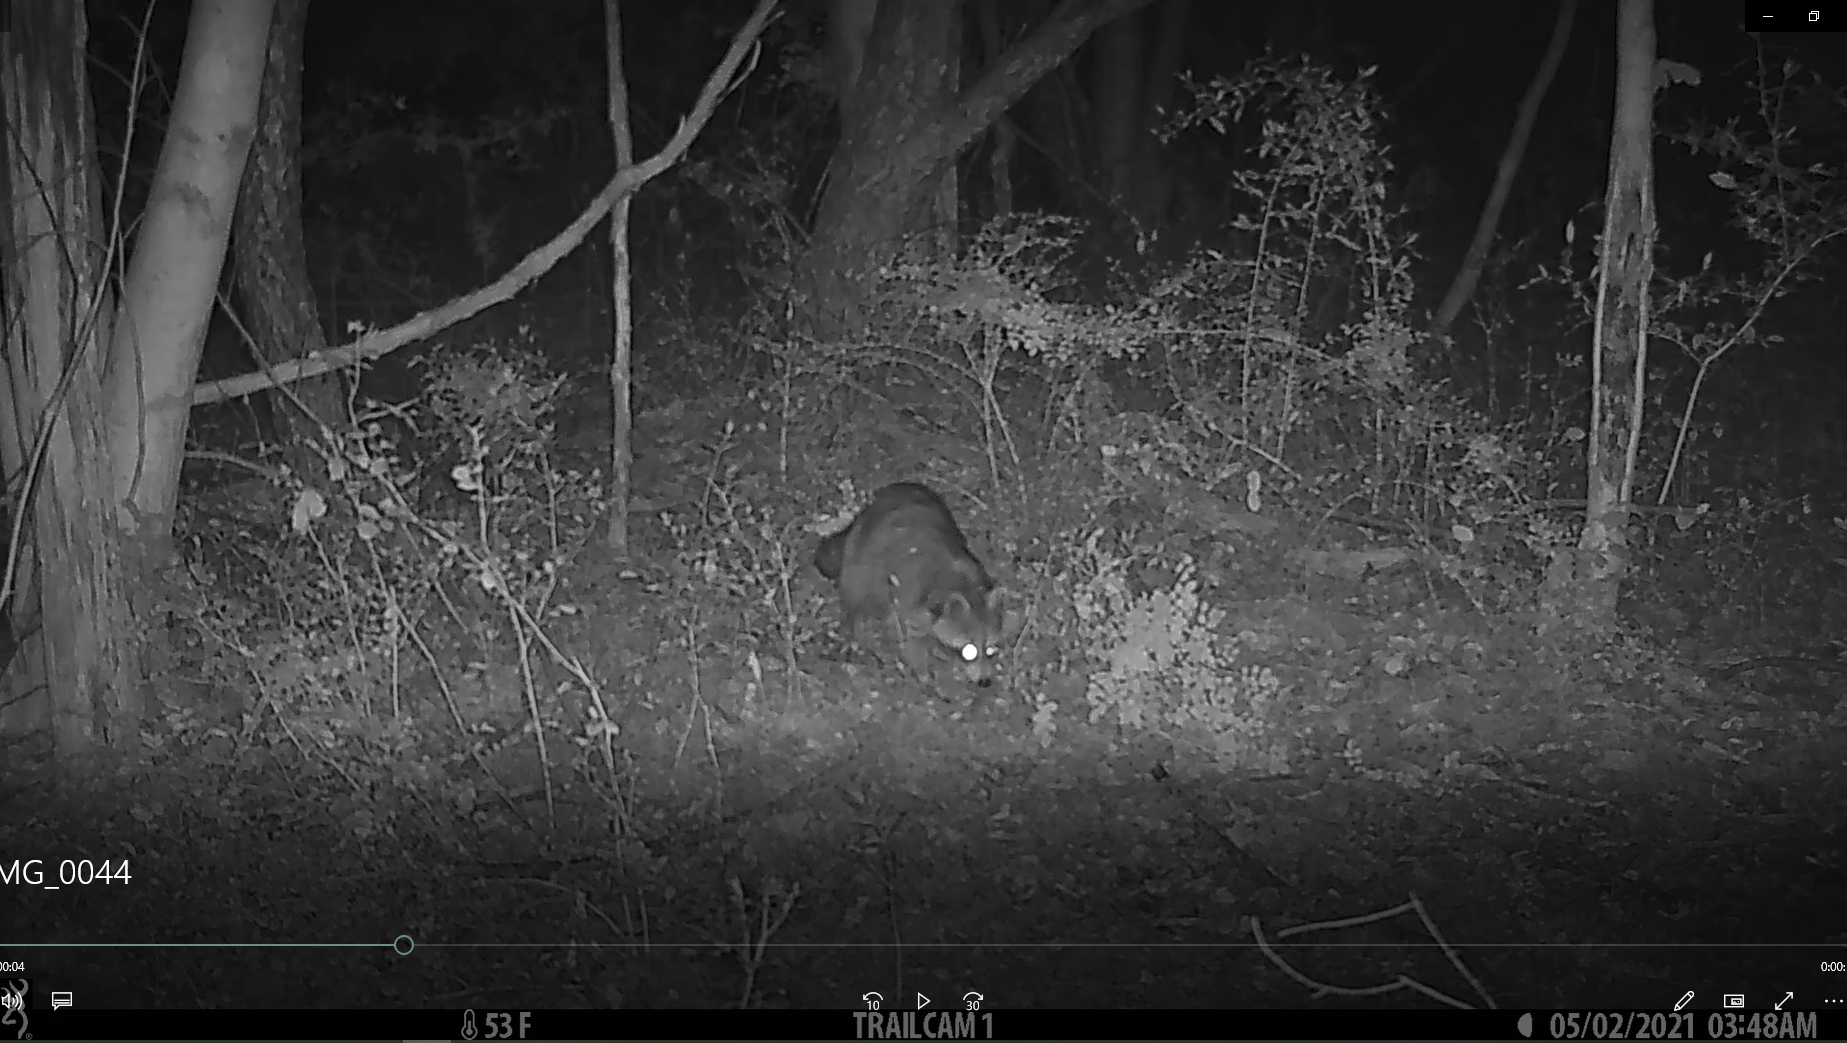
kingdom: Animalia
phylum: Chordata
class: Mammalia
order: Carnivora
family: Procyonidae
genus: Procyon
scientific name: Procyon lotor
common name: Raccoon
